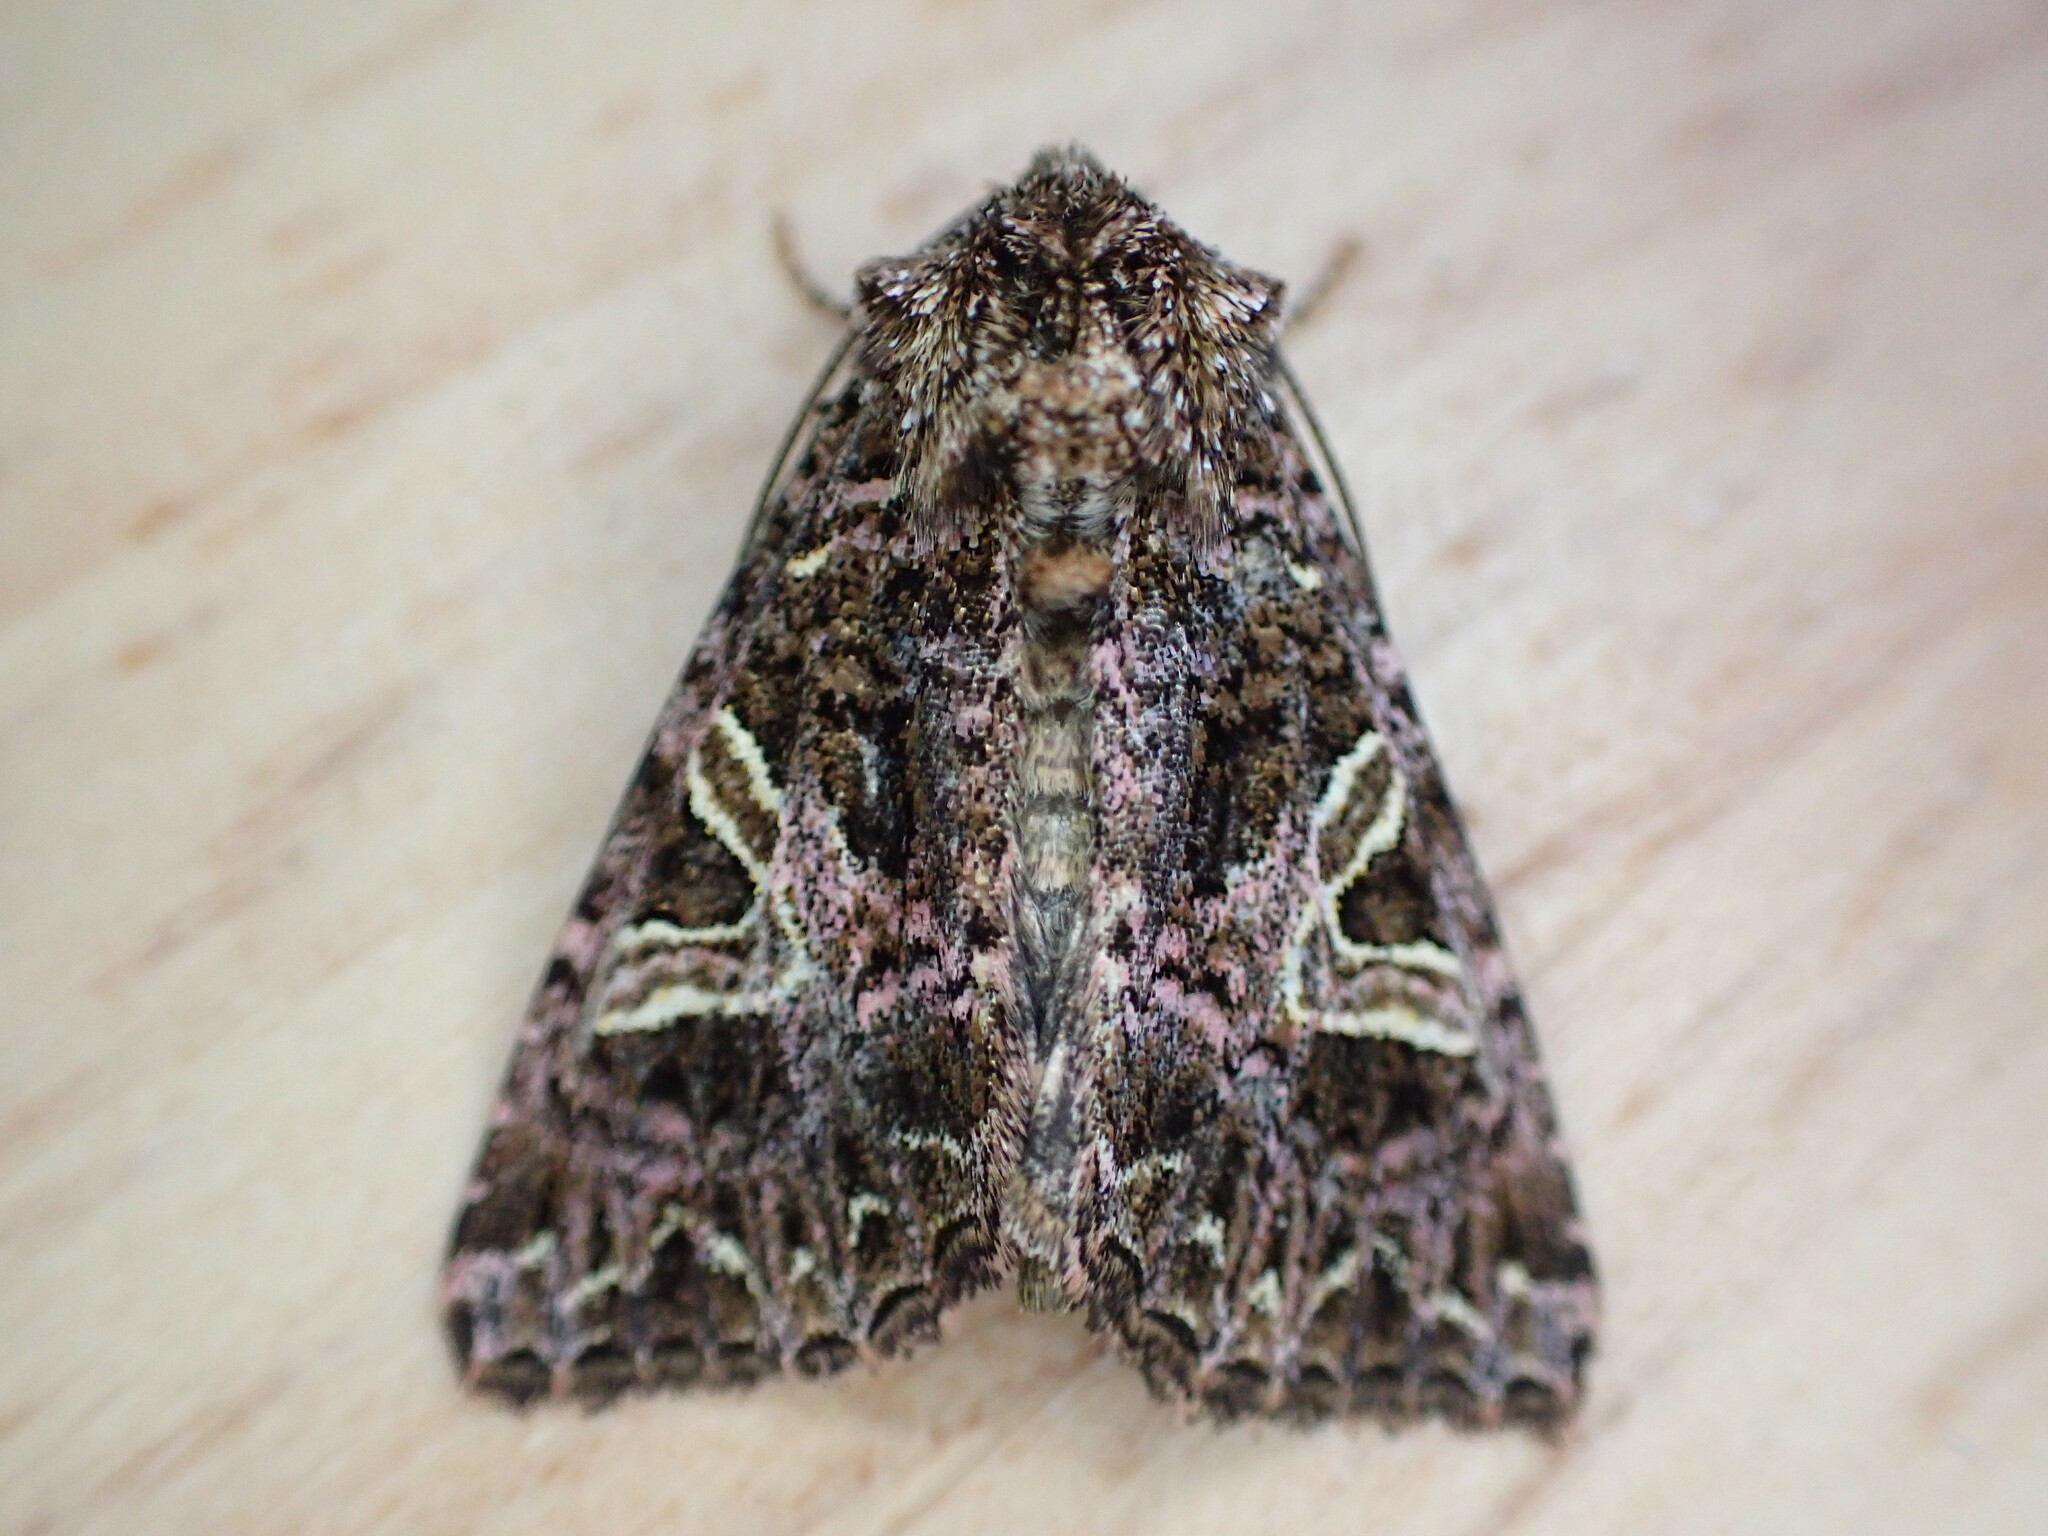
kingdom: Animalia
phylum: Arthropoda
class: Insecta
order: Lepidoptera
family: Noctuidae
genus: Sideridis
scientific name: Sideridis rivularis
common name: Campion
